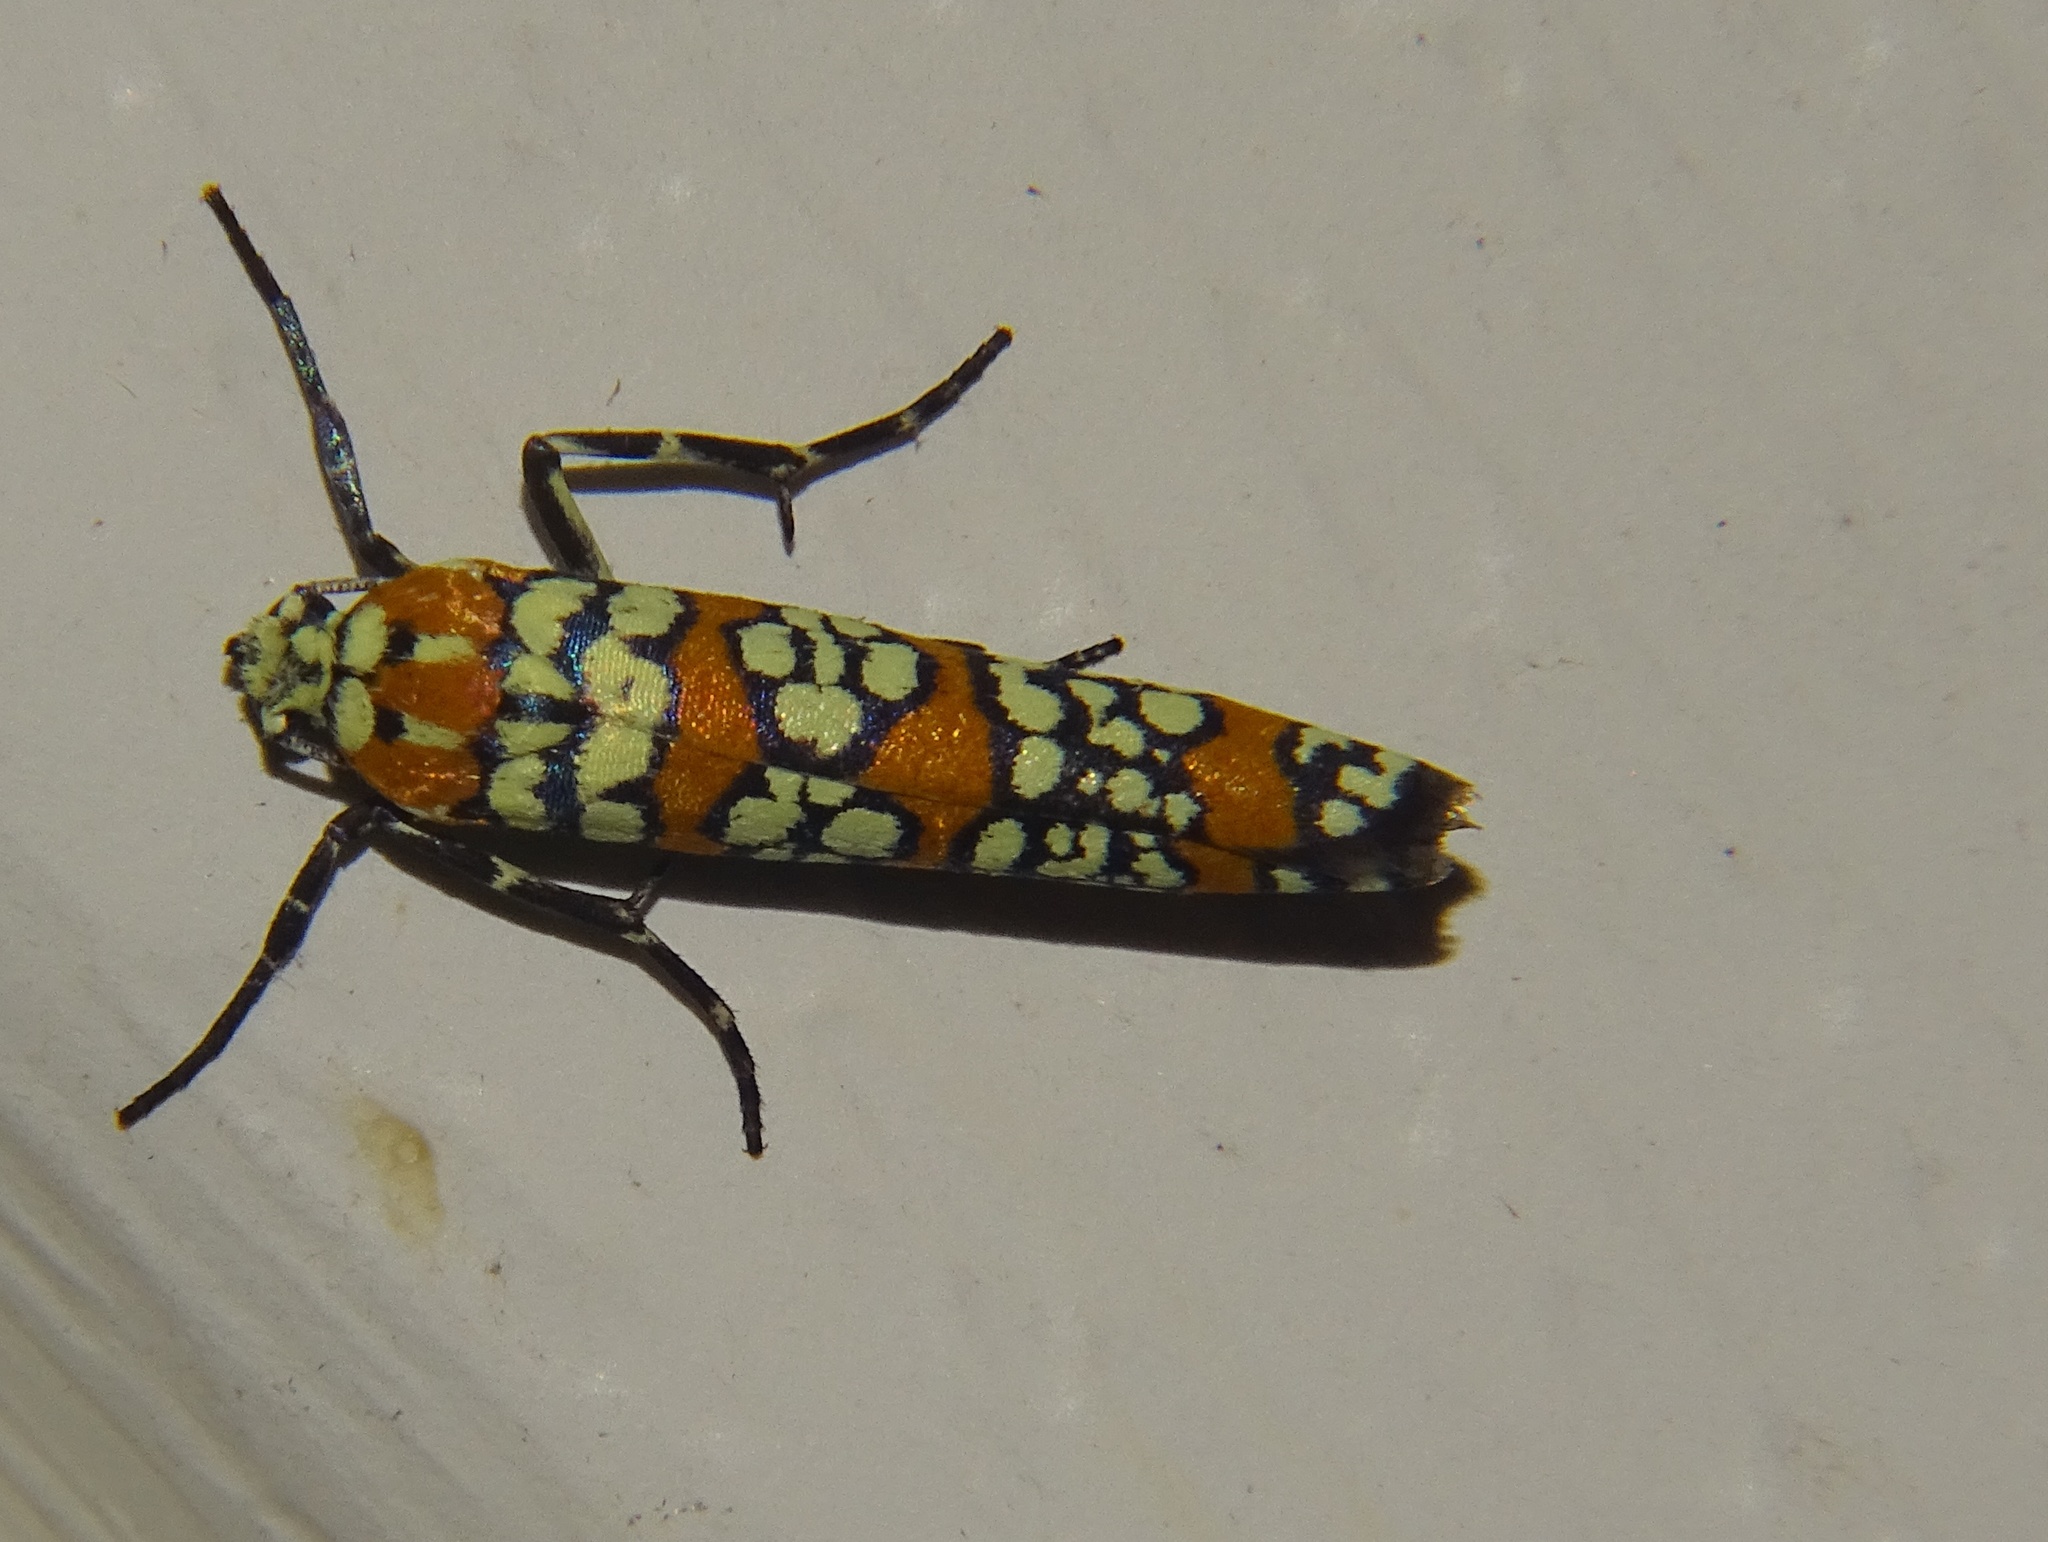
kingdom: Animalia
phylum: Arthropoda
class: Insecta
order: Lepidoptera
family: Attevidae
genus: Atteva
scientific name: Atteva punctella
